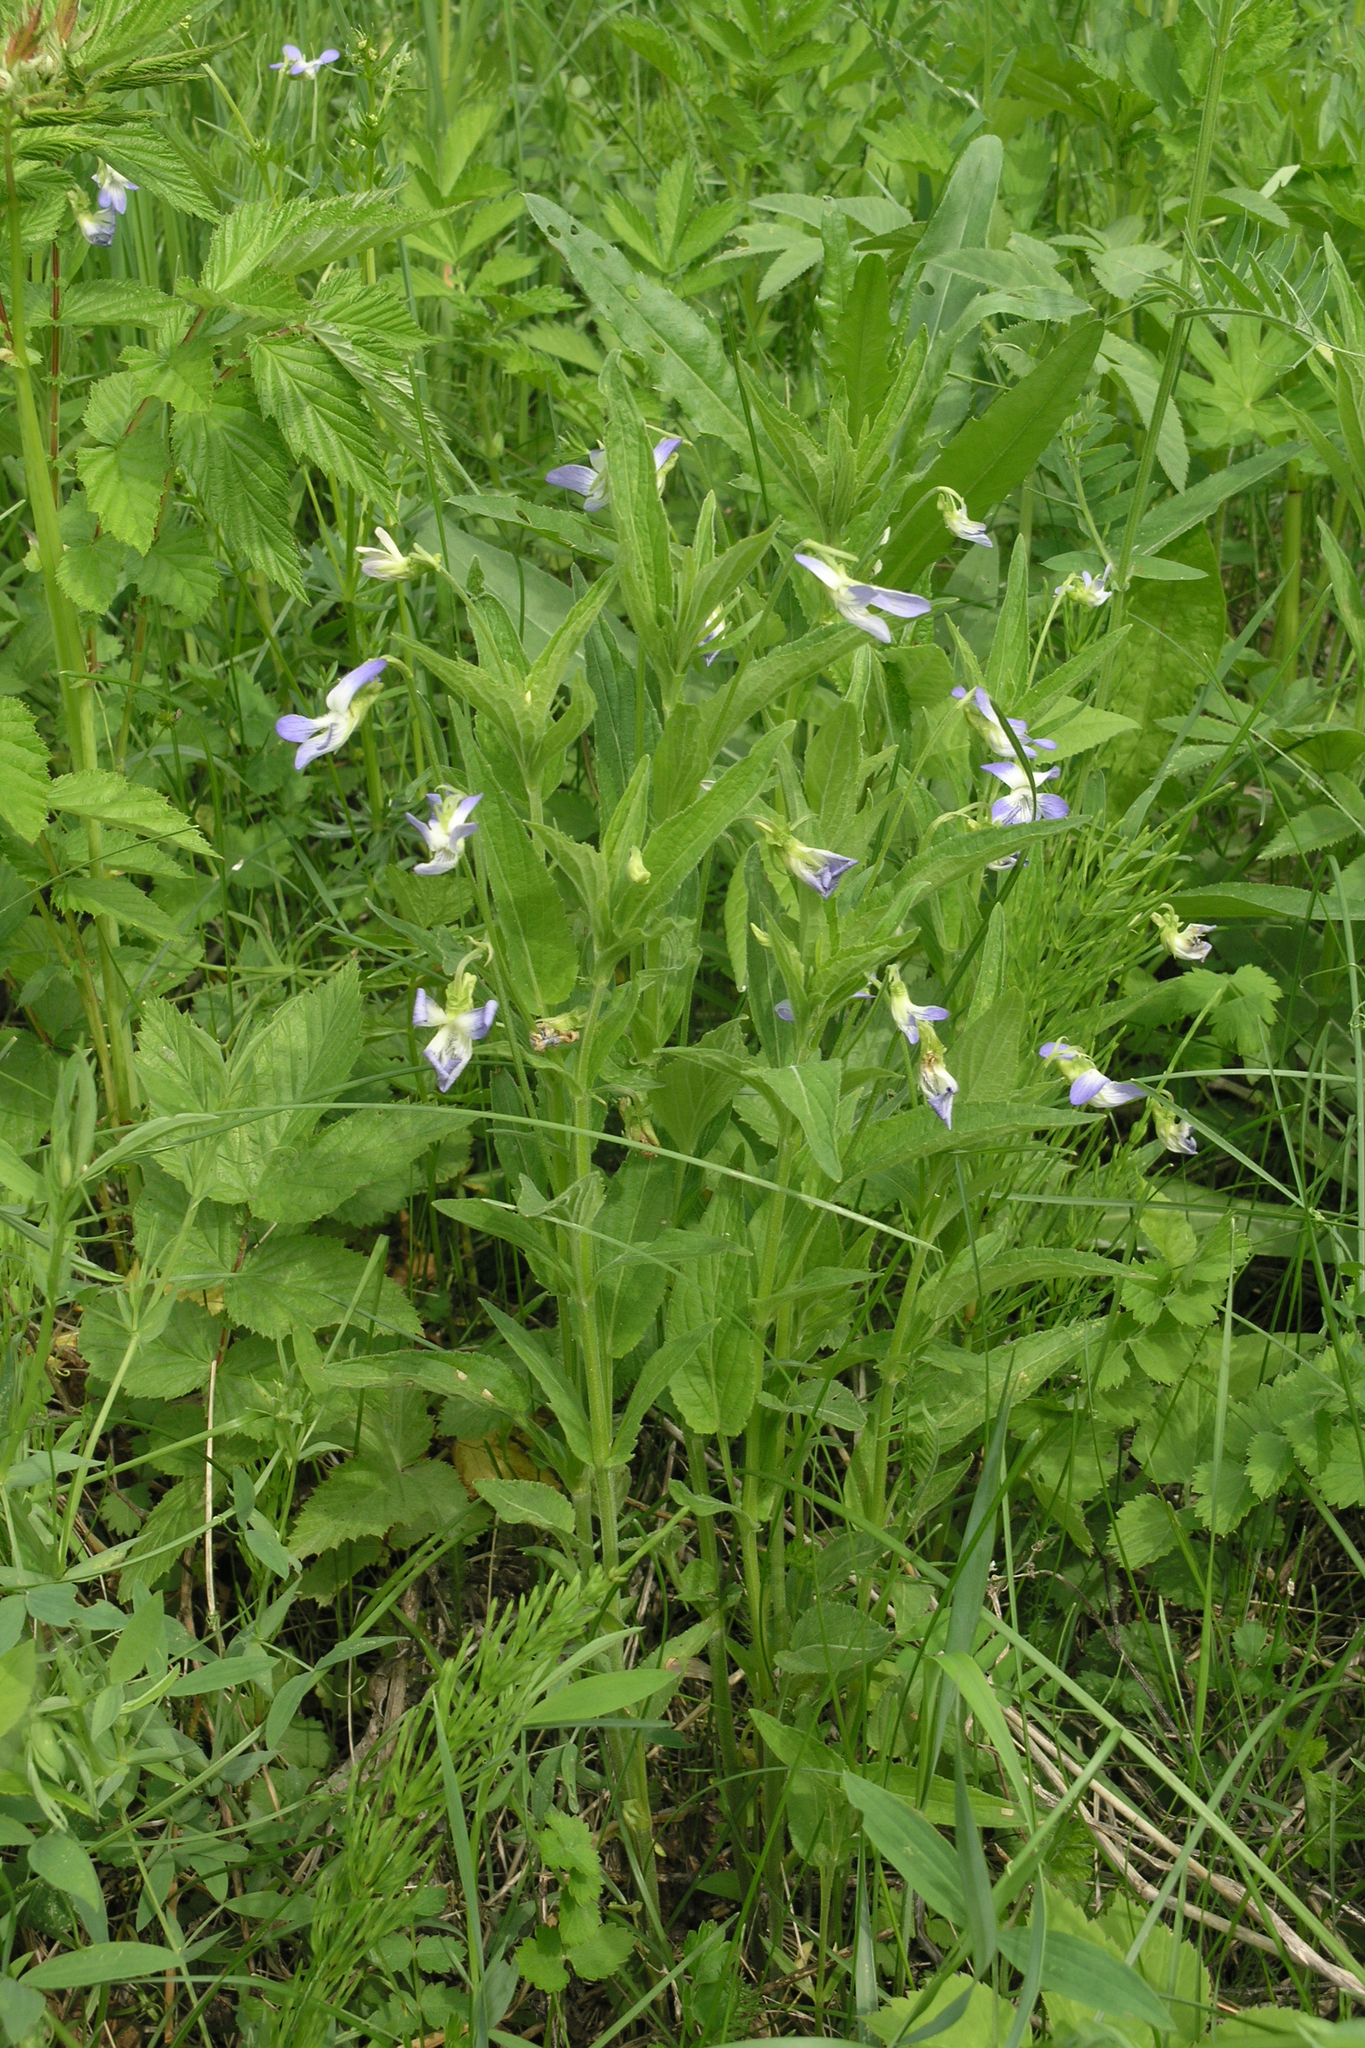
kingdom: Plantae
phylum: Tracheophyta
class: Magnoliopsida
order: Malpighiales
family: Violaceae
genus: Viola
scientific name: Viola stagnina
